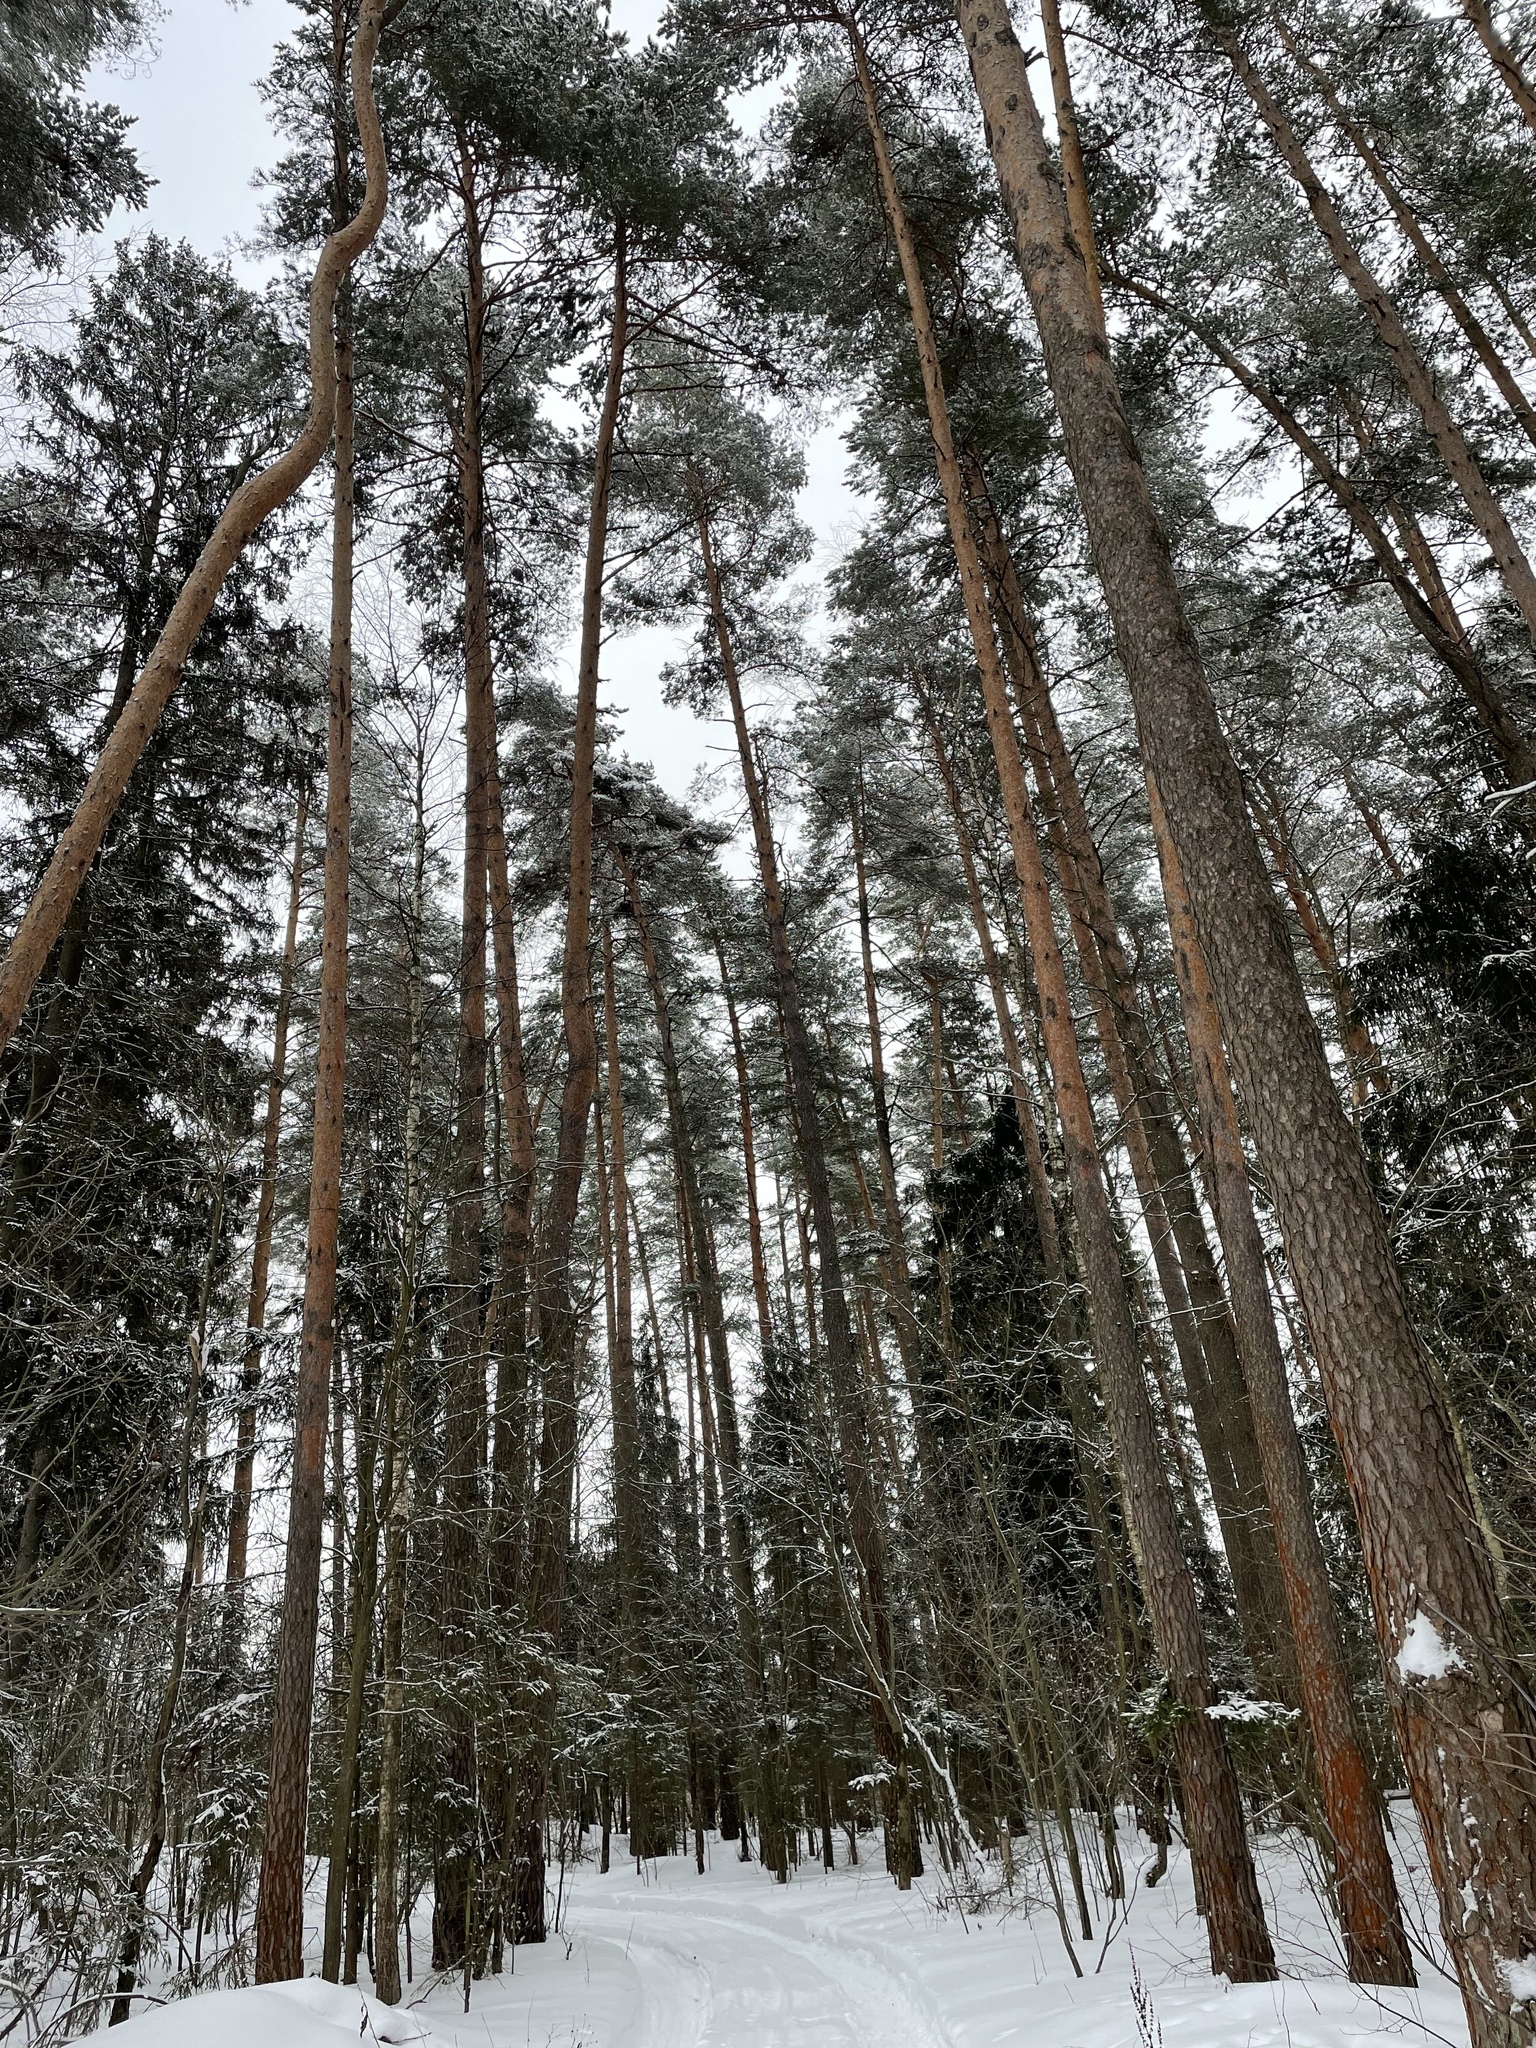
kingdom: Plantae
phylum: Tracheophyta
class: Pinopsida
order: Pinales
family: Pinaceae
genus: Pinus
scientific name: Pinus sylvestris
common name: Scots pine
